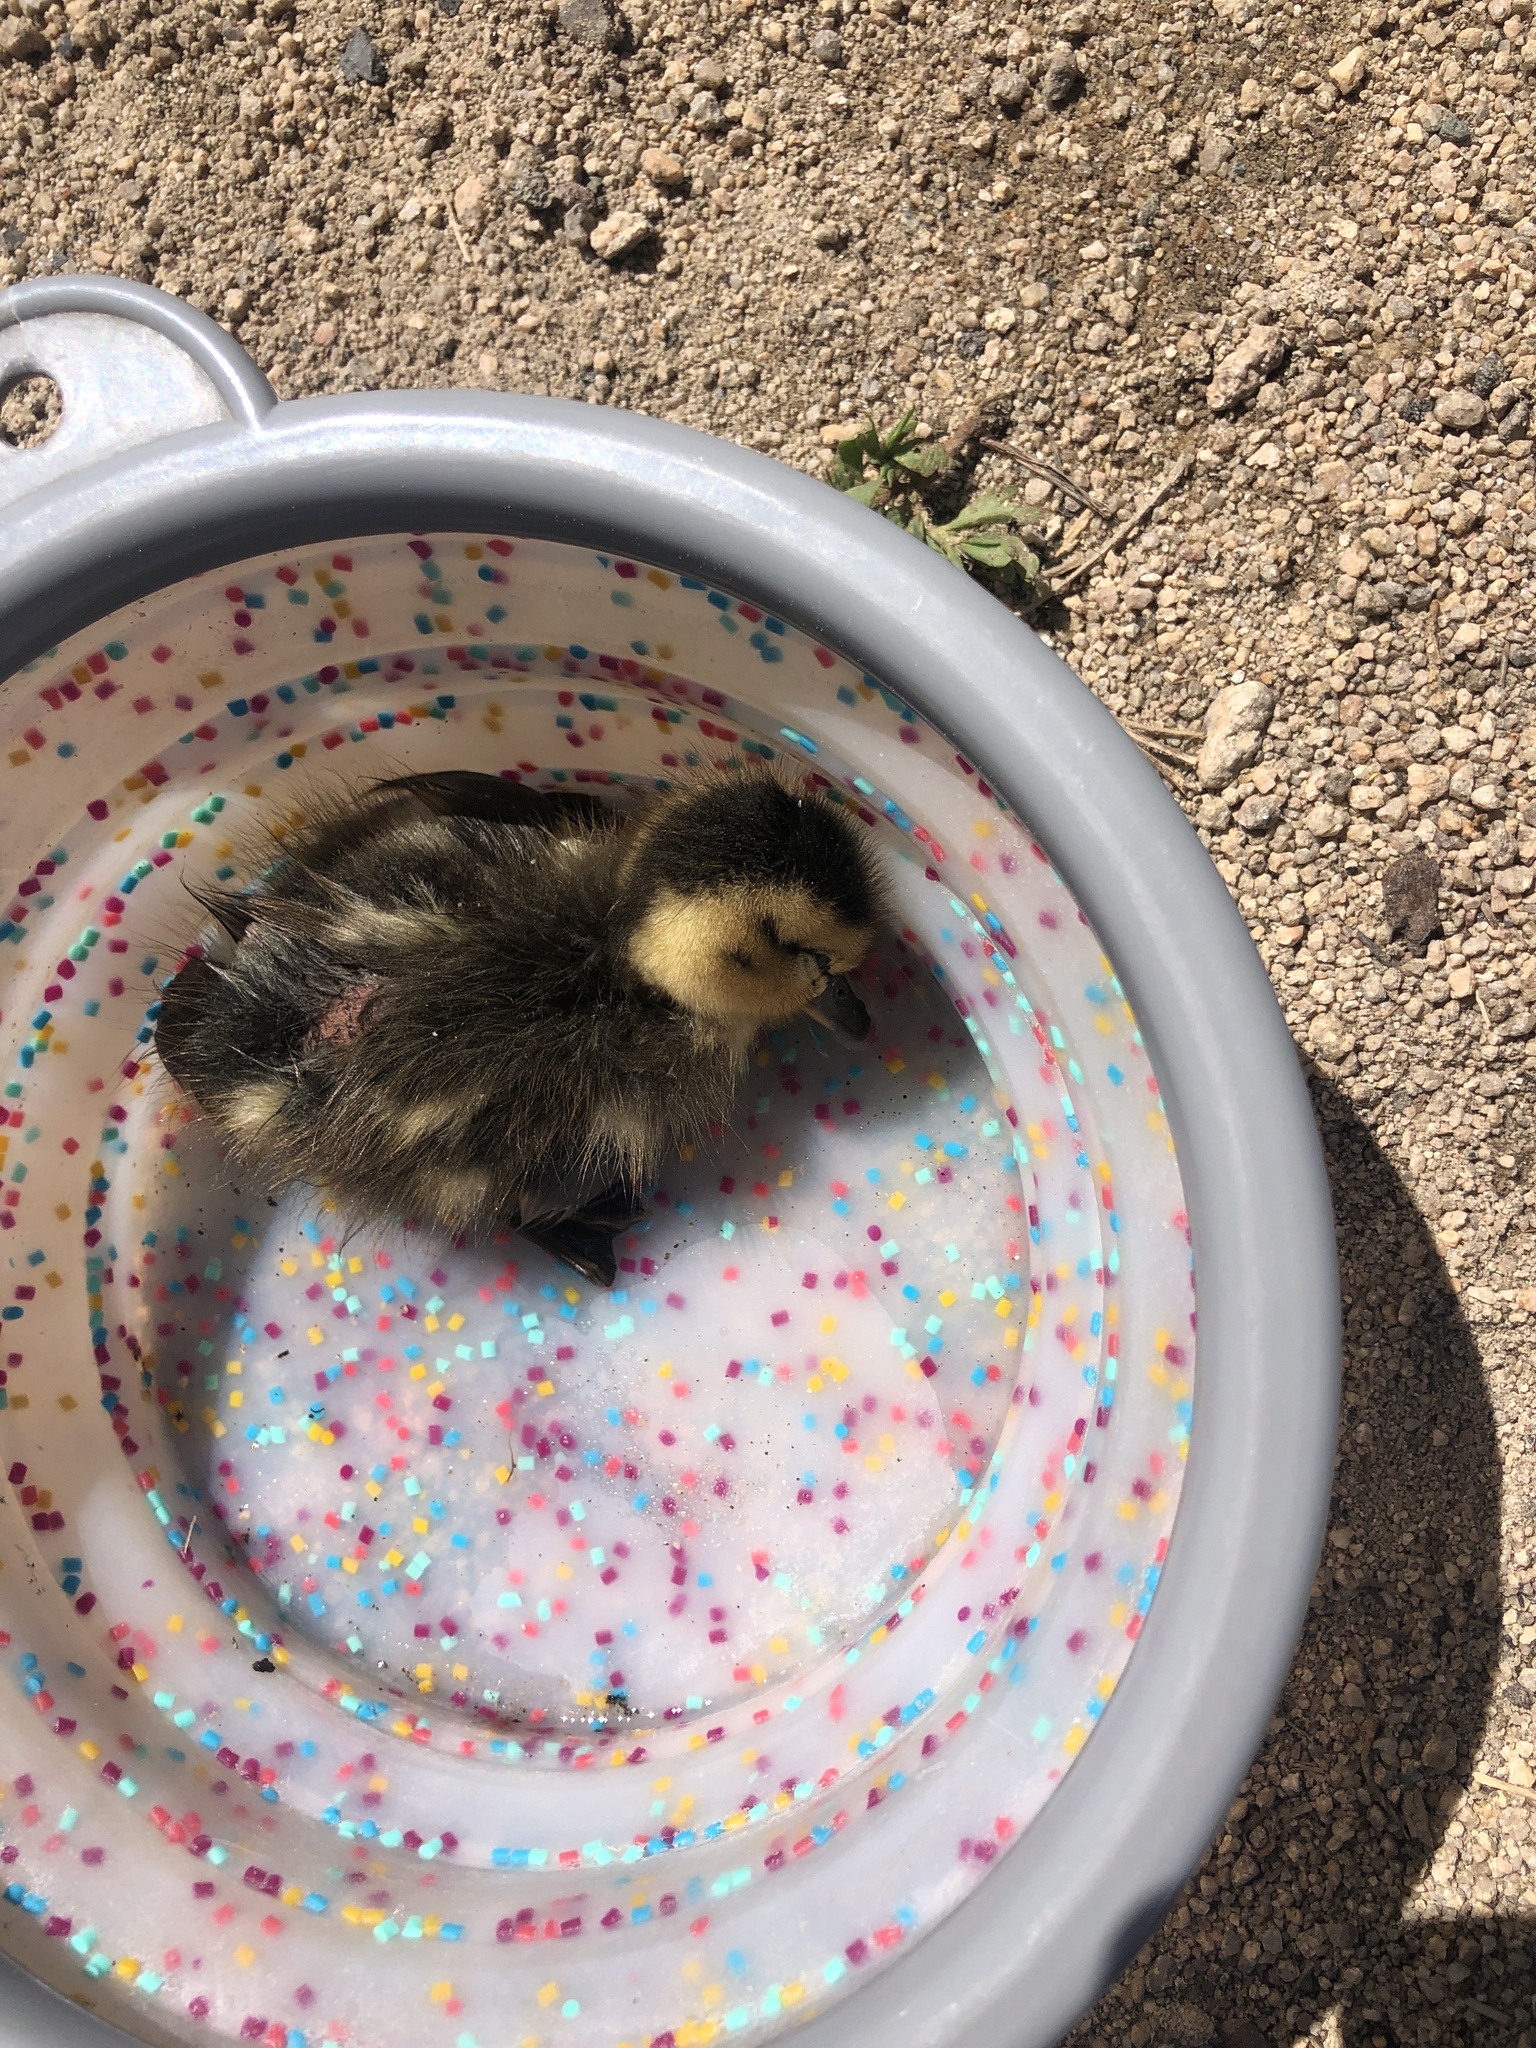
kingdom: Animalia
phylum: Chordata
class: Aves
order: Anseriformes
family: Anatidae
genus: Anas
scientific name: Anas platyrhynchos
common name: Mallard
